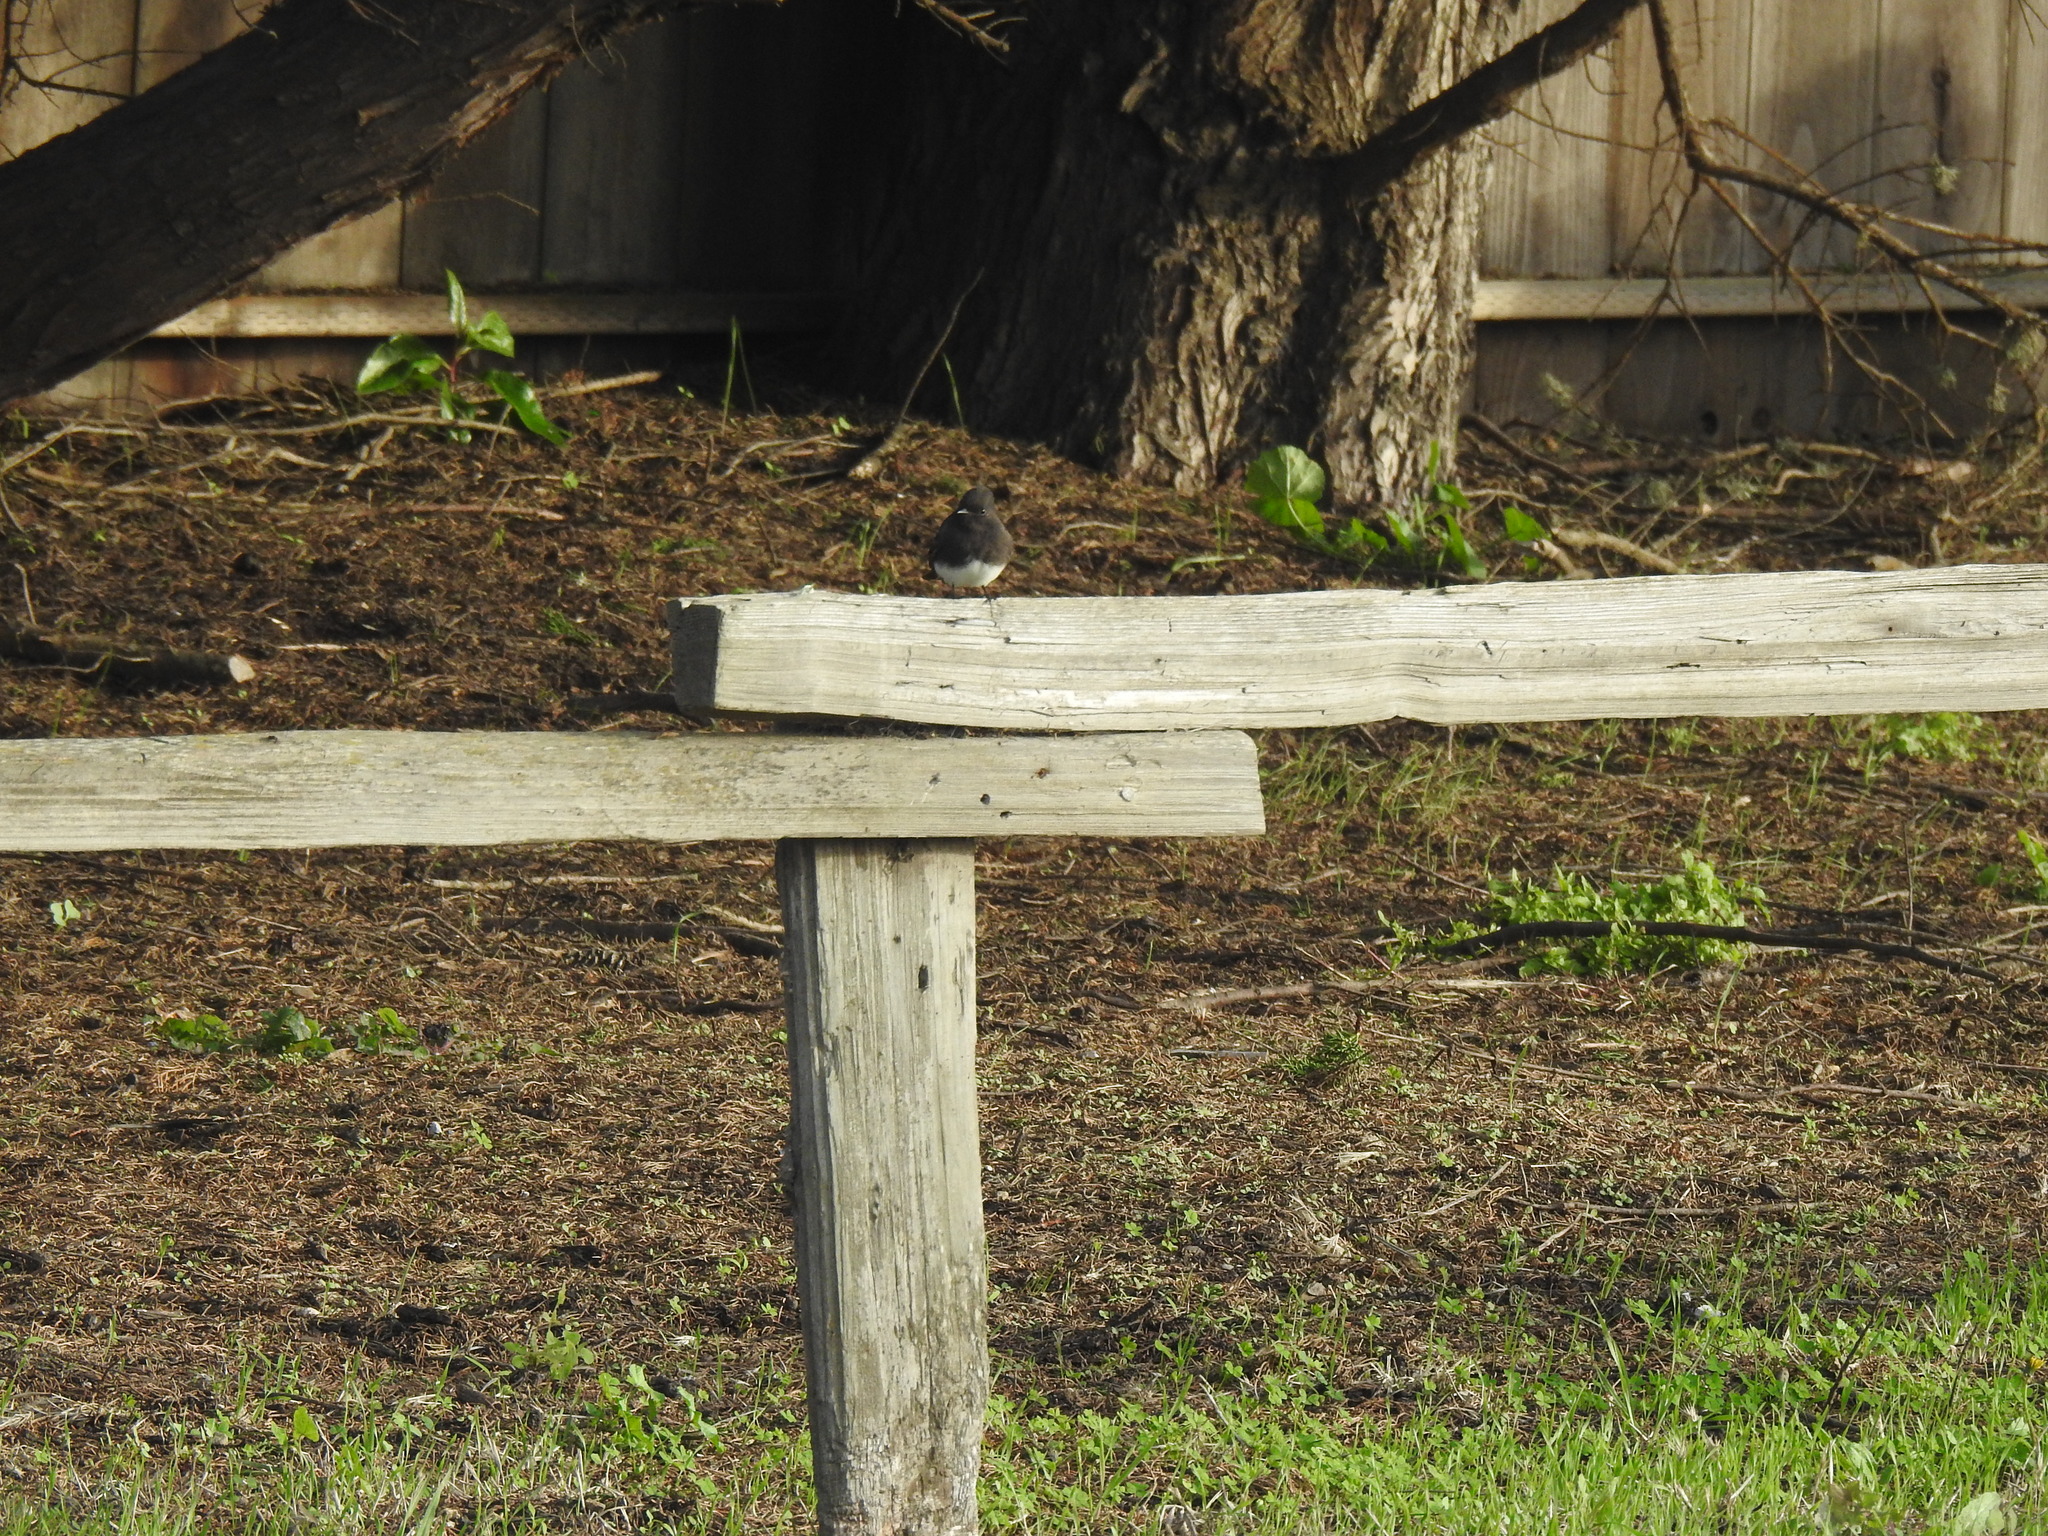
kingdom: Animalia
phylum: Chordata
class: Aves
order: Passeriformes
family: Tyrannidae
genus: Sayornis
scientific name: Sayornis nigricans
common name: Black phoebe
